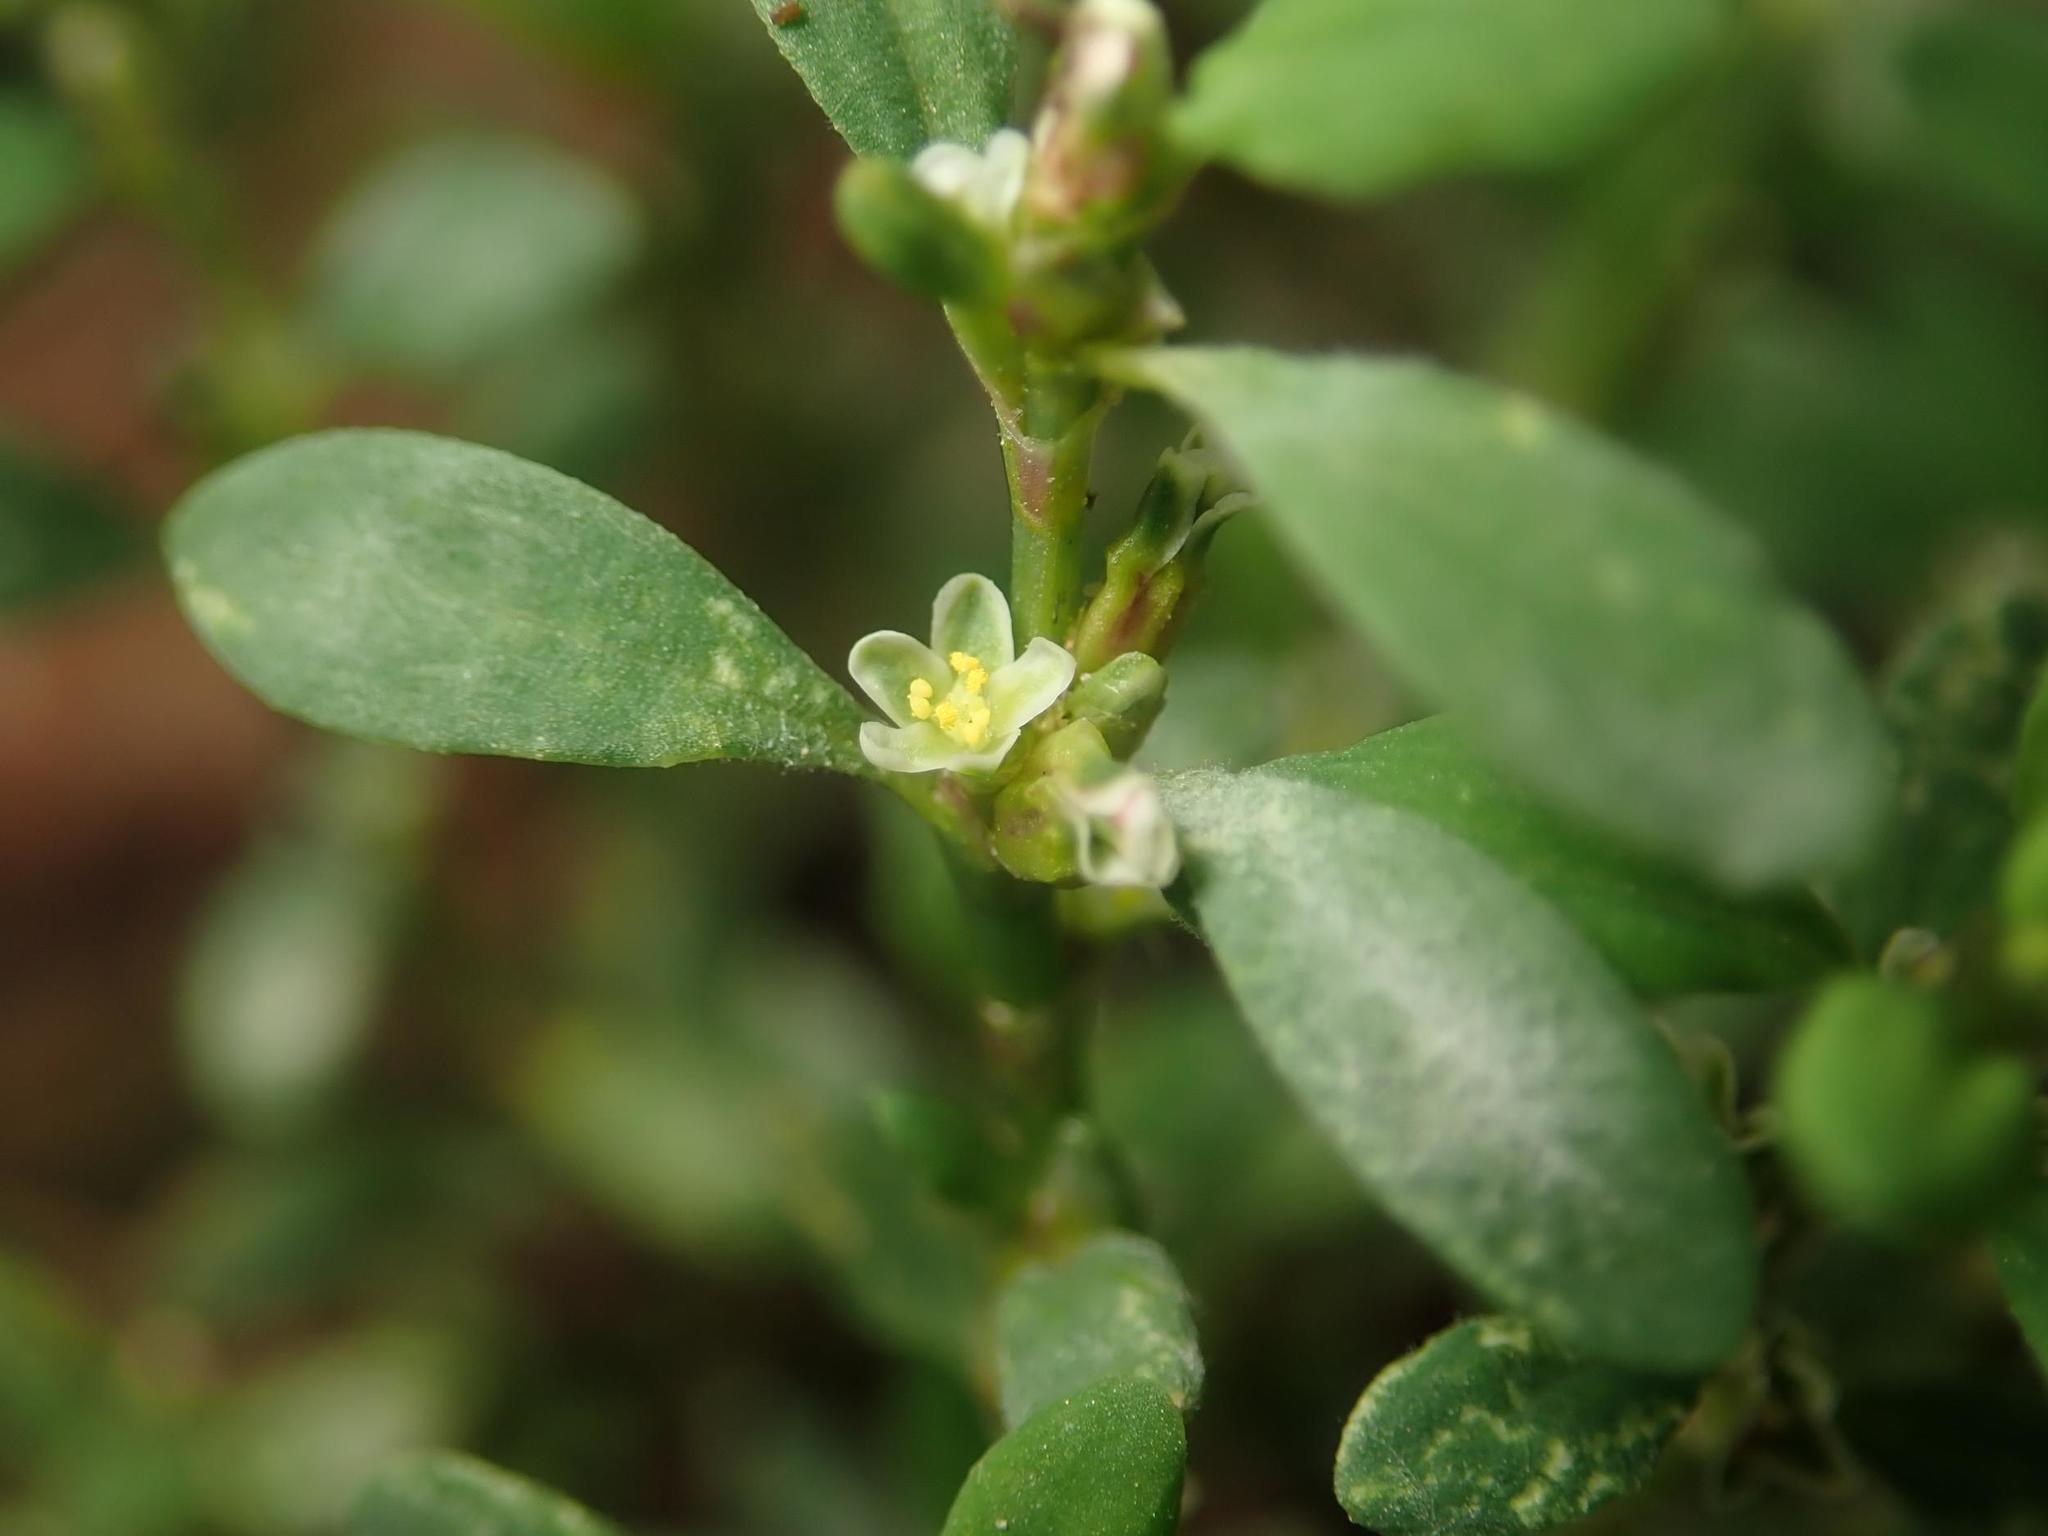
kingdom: Plantae
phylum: Tracheophyta
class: Magnoliopsida
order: Caryophyllales
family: Polygonaceae
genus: Polygonum
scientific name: Polygonum aviculare
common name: Prostrate knotweed
